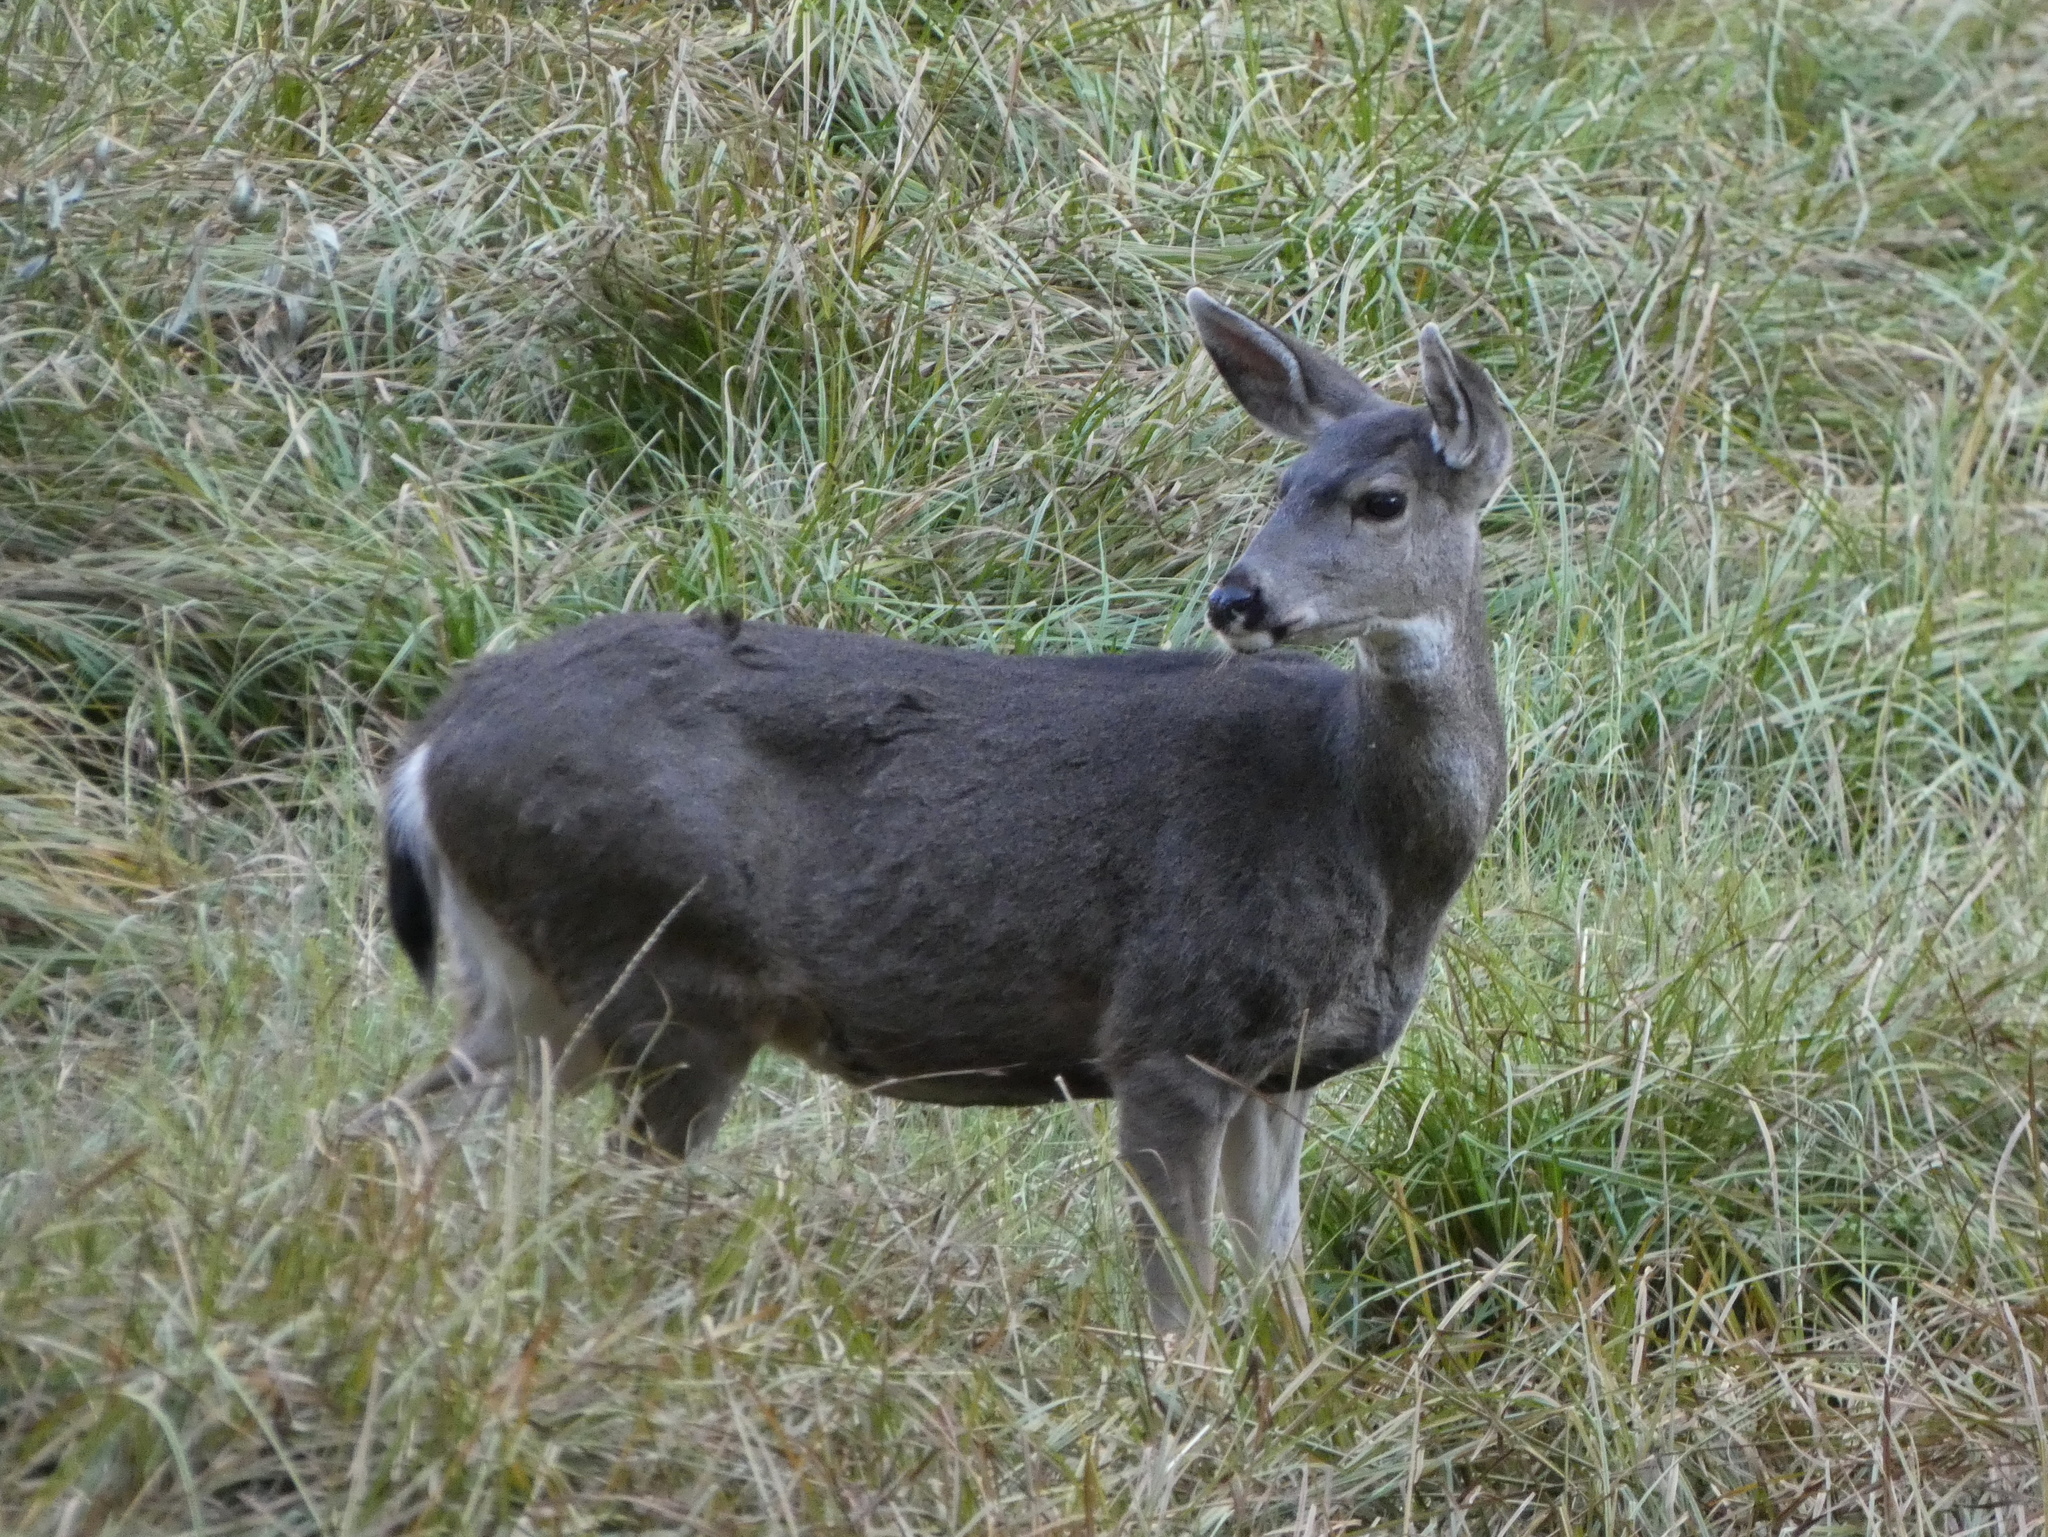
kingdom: Animalia
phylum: Chordata
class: Mammalia
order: Artiodactyla
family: Cervidae
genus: Odocoileus
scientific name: Odocoileus hemionus
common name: Mule deer
